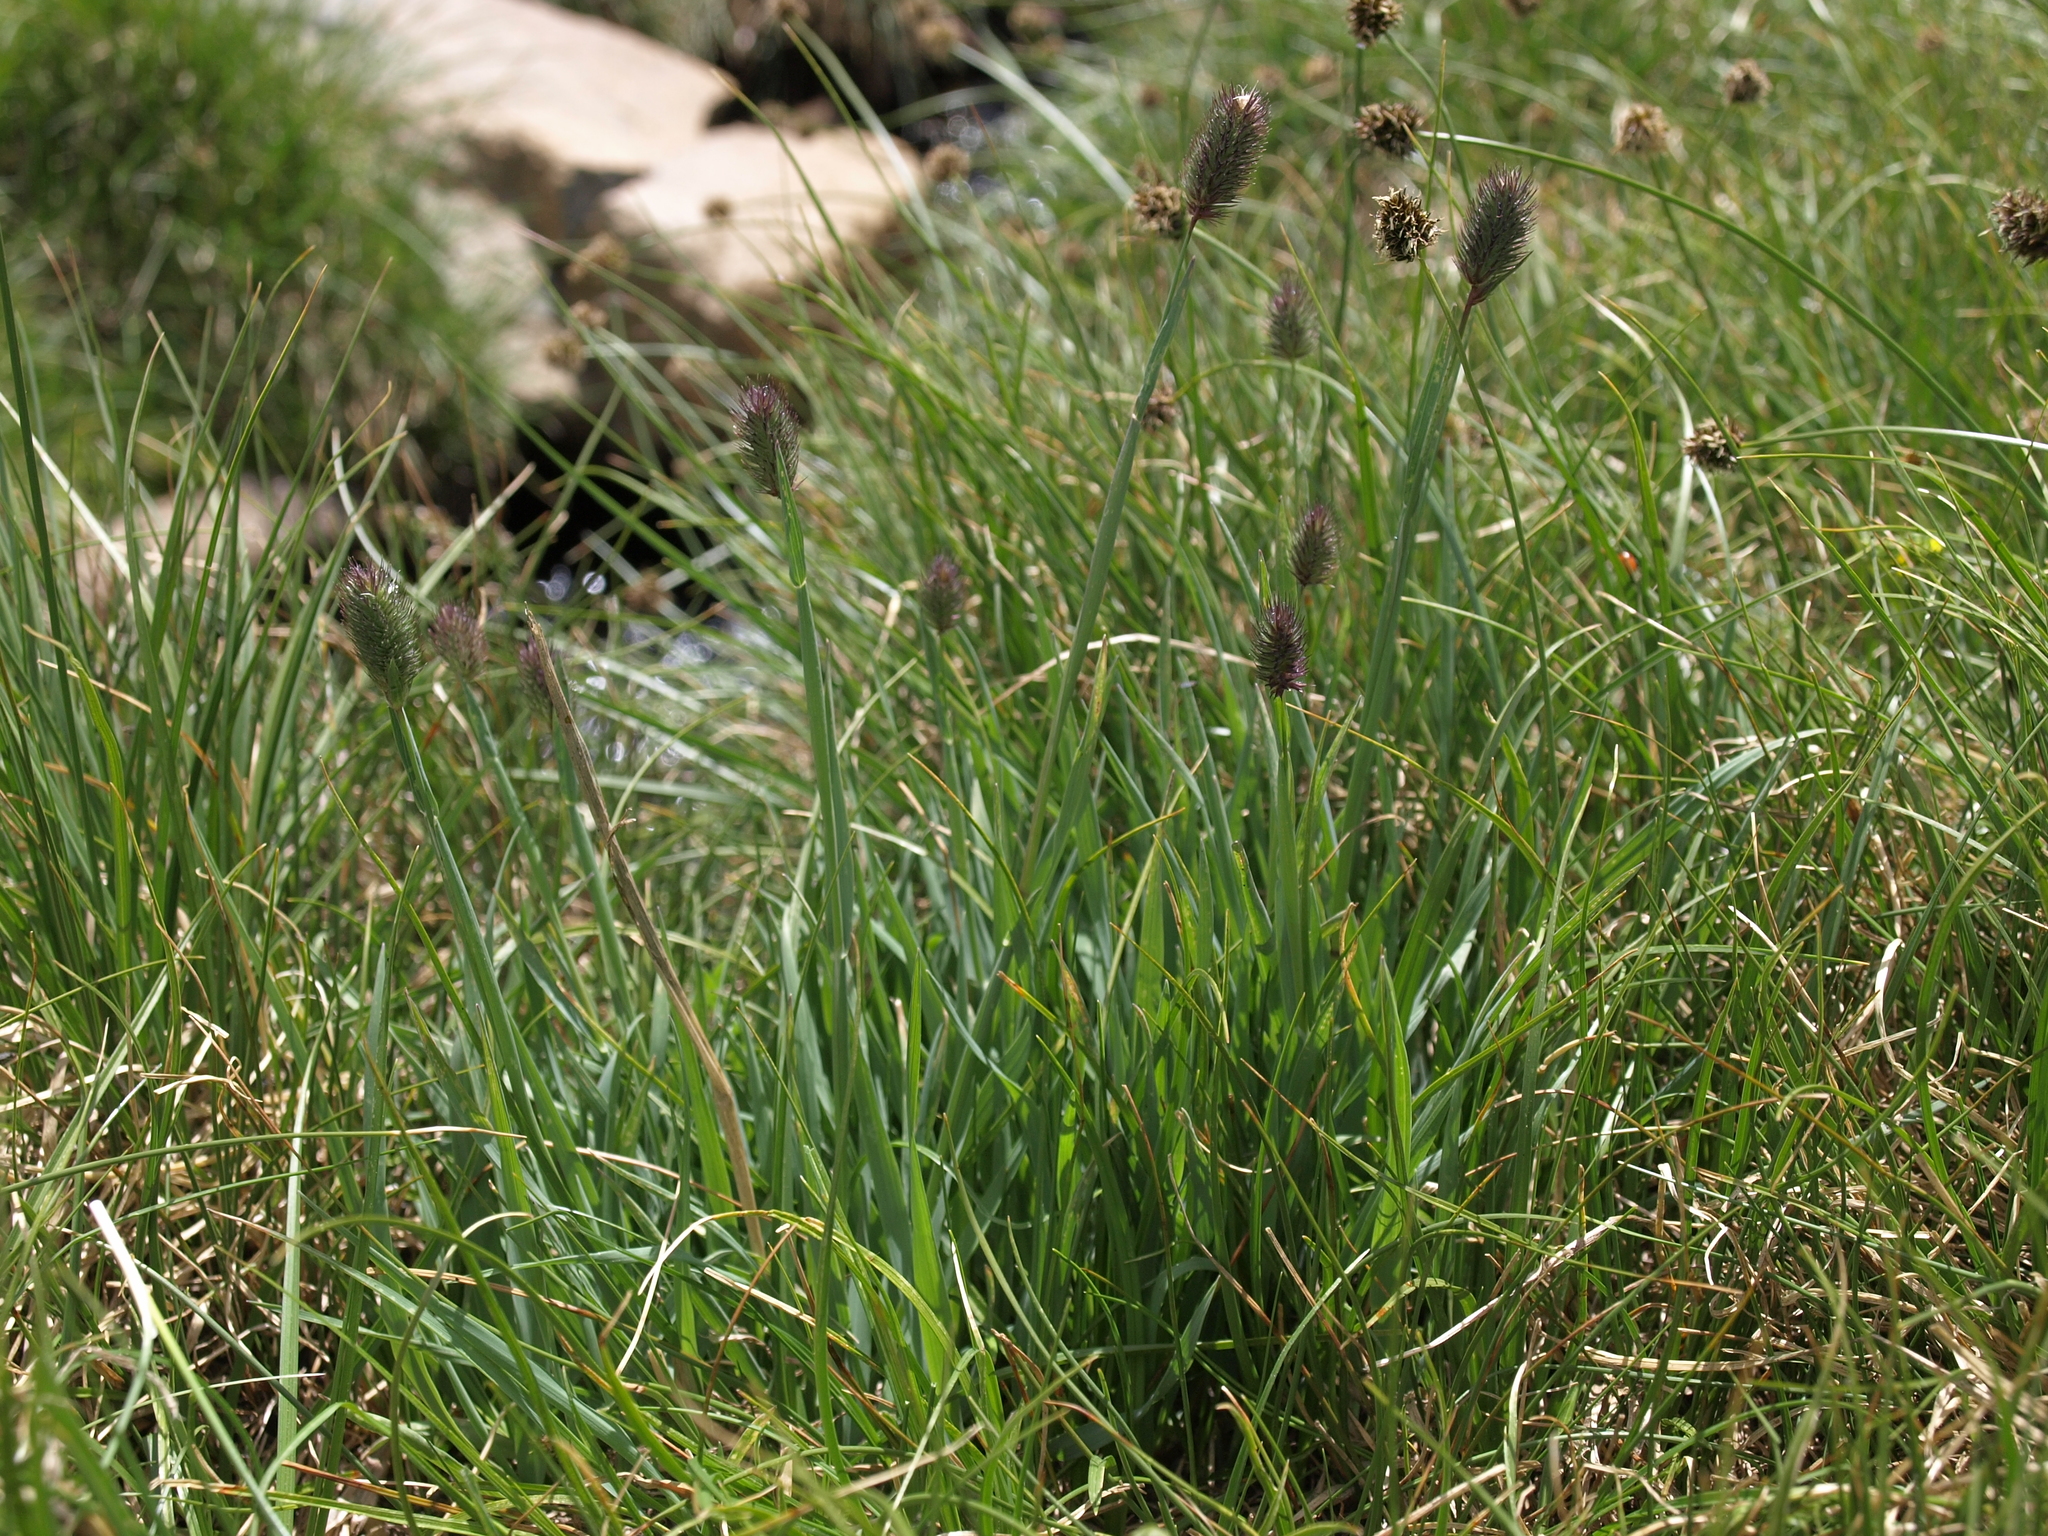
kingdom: Plantae
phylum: Tracheophyta
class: Liliopsida
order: Poales
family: Poaceae
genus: Phleum
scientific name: Phleum alpinum
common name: Alpine cat's-tail
